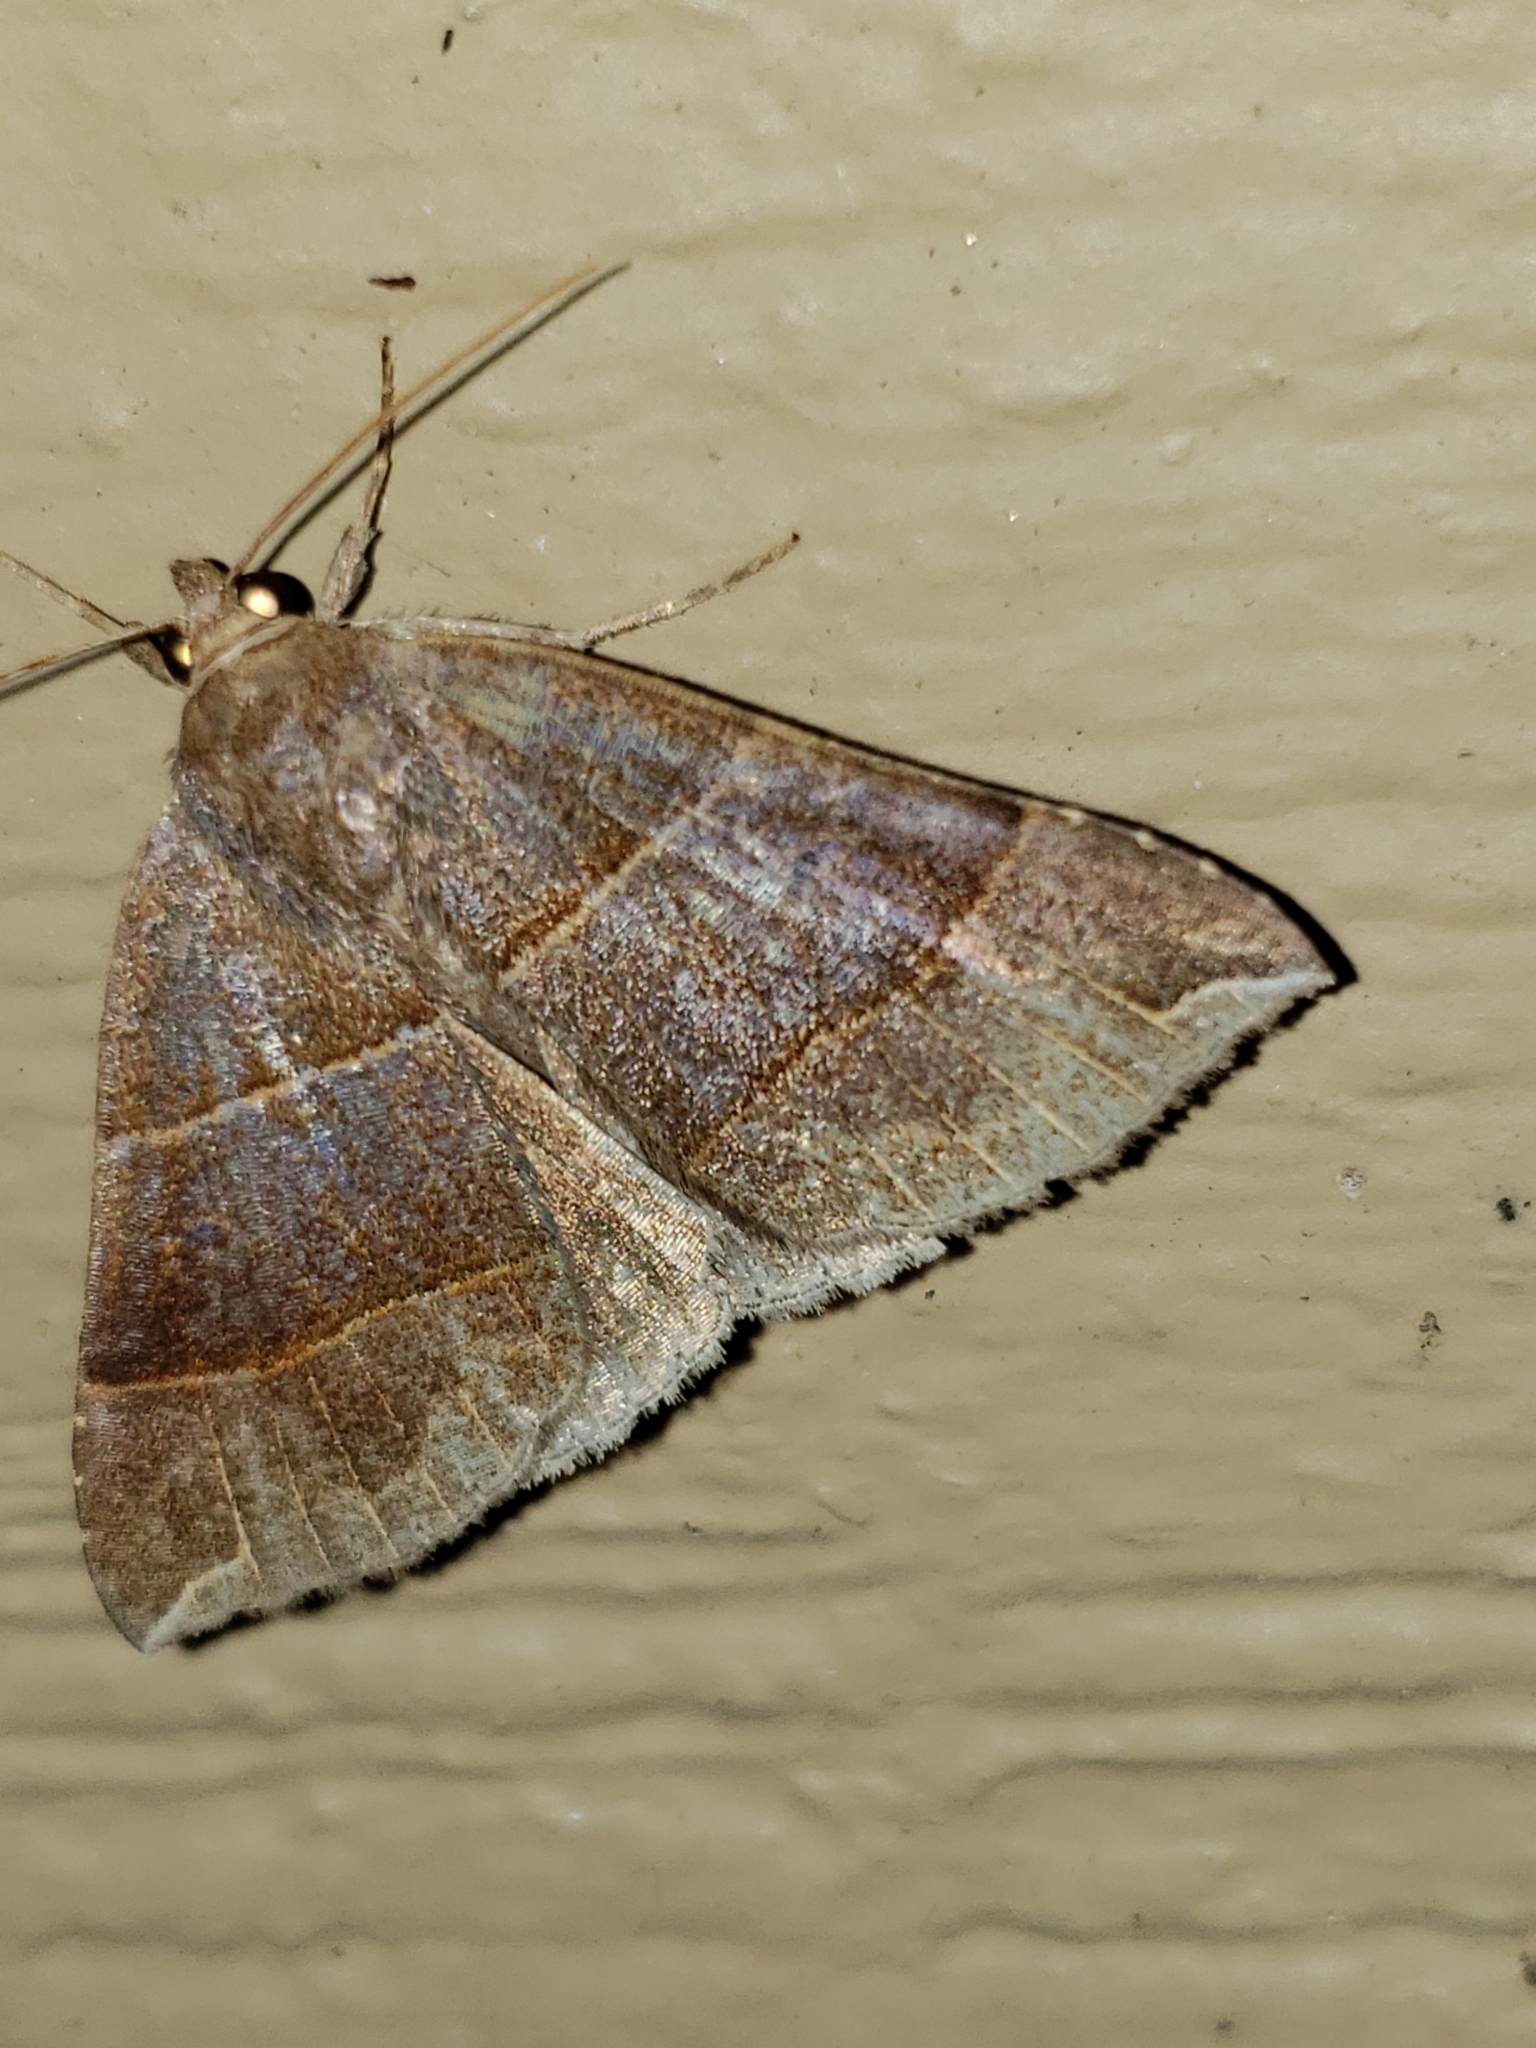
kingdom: Animalia
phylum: Arthropoda
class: Insecta
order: Lepidoptera
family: Erebidae
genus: Parallelia
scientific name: Parallelia bistriaris
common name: Maple looper moth
